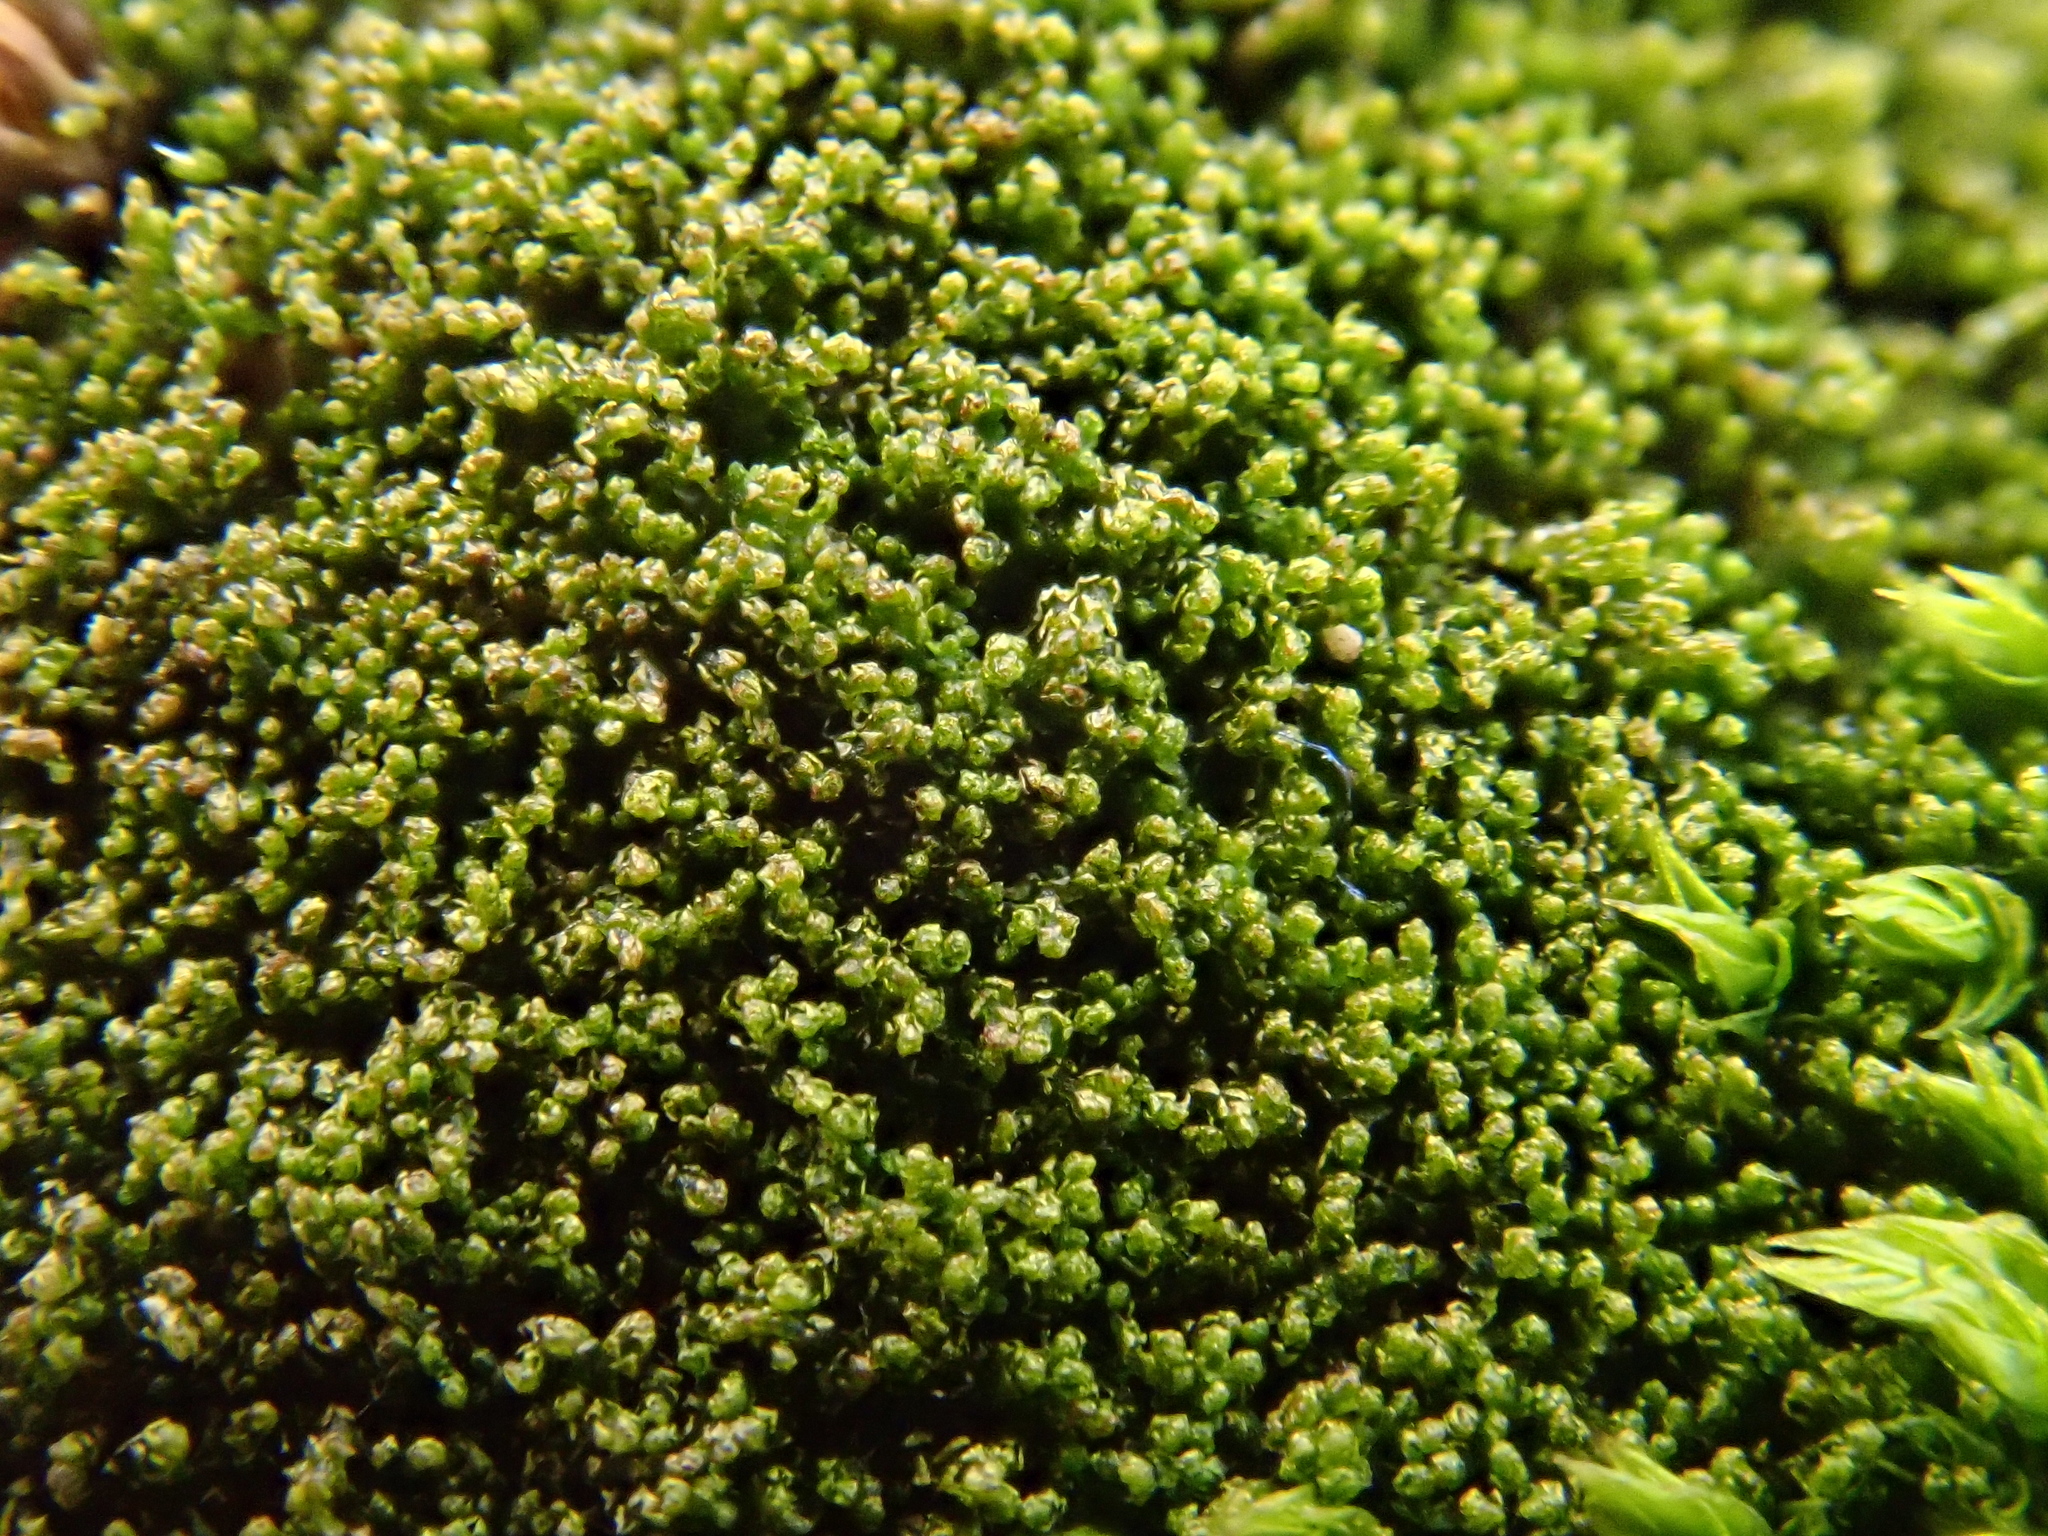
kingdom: Plantae
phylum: Marchantiophyta
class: Jungermanniopsida
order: Jungermanniales
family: Cephaloziellaceae
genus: Cephaloziella
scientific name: Cephaloziella divaricata
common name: Spreading threadwort
